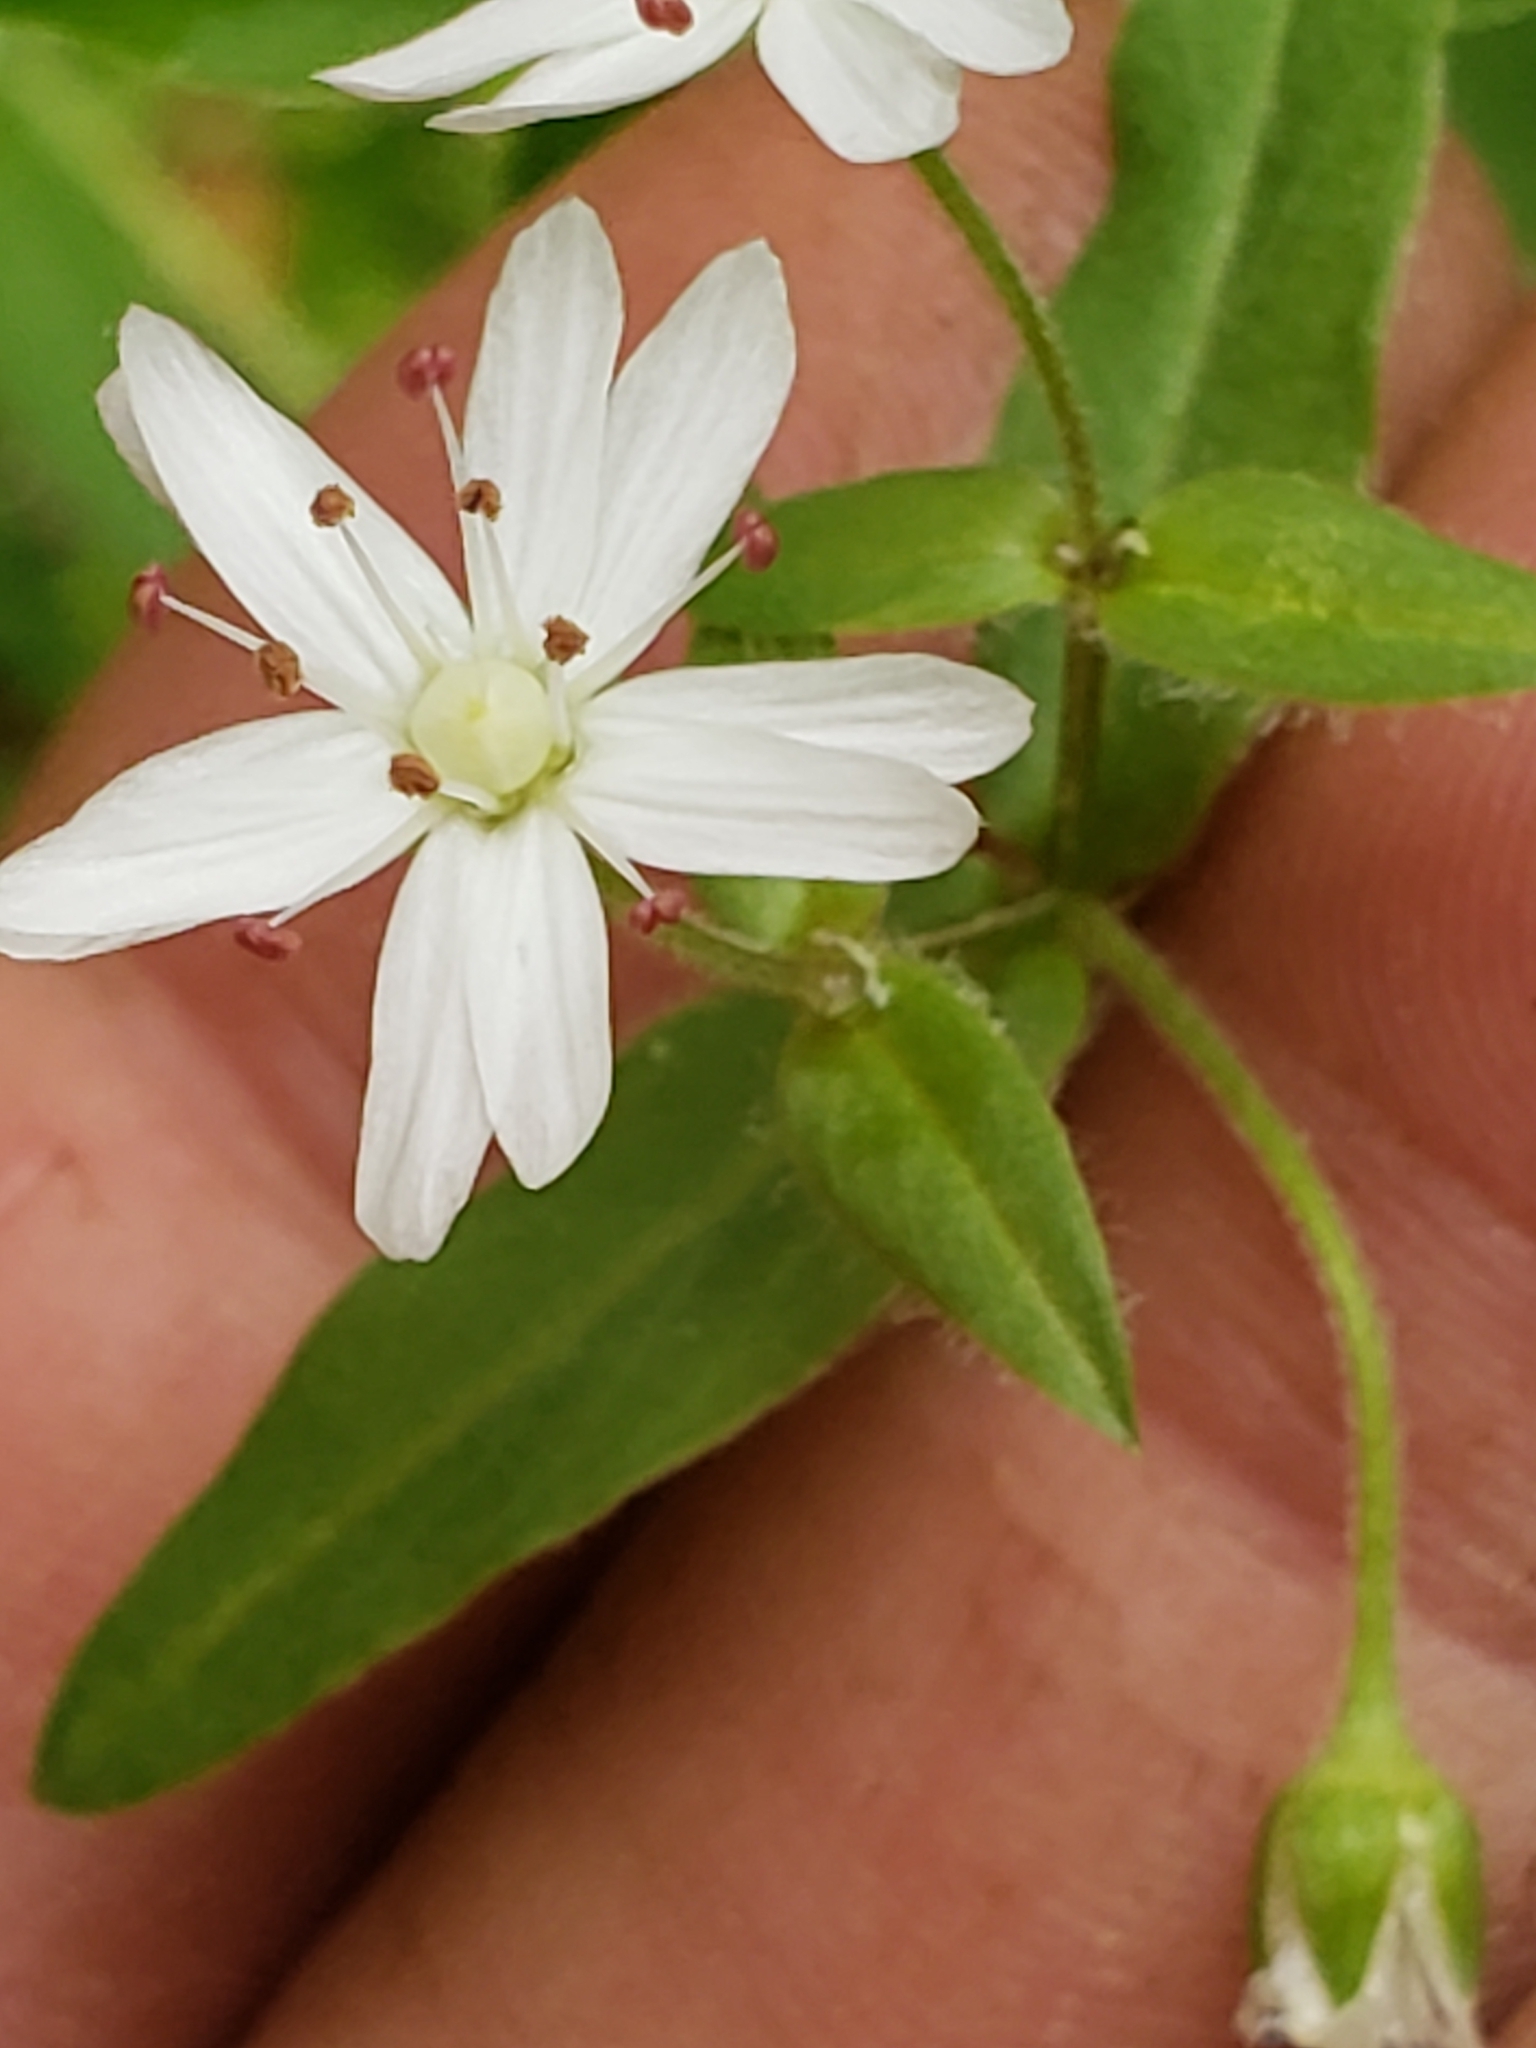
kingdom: Plantae
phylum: Tracheophyta
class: Magnoliopsida
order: Caryophyllales
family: Caryophyllaceae
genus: Stellaria
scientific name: Stellaria pubera
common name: Star chickweed
